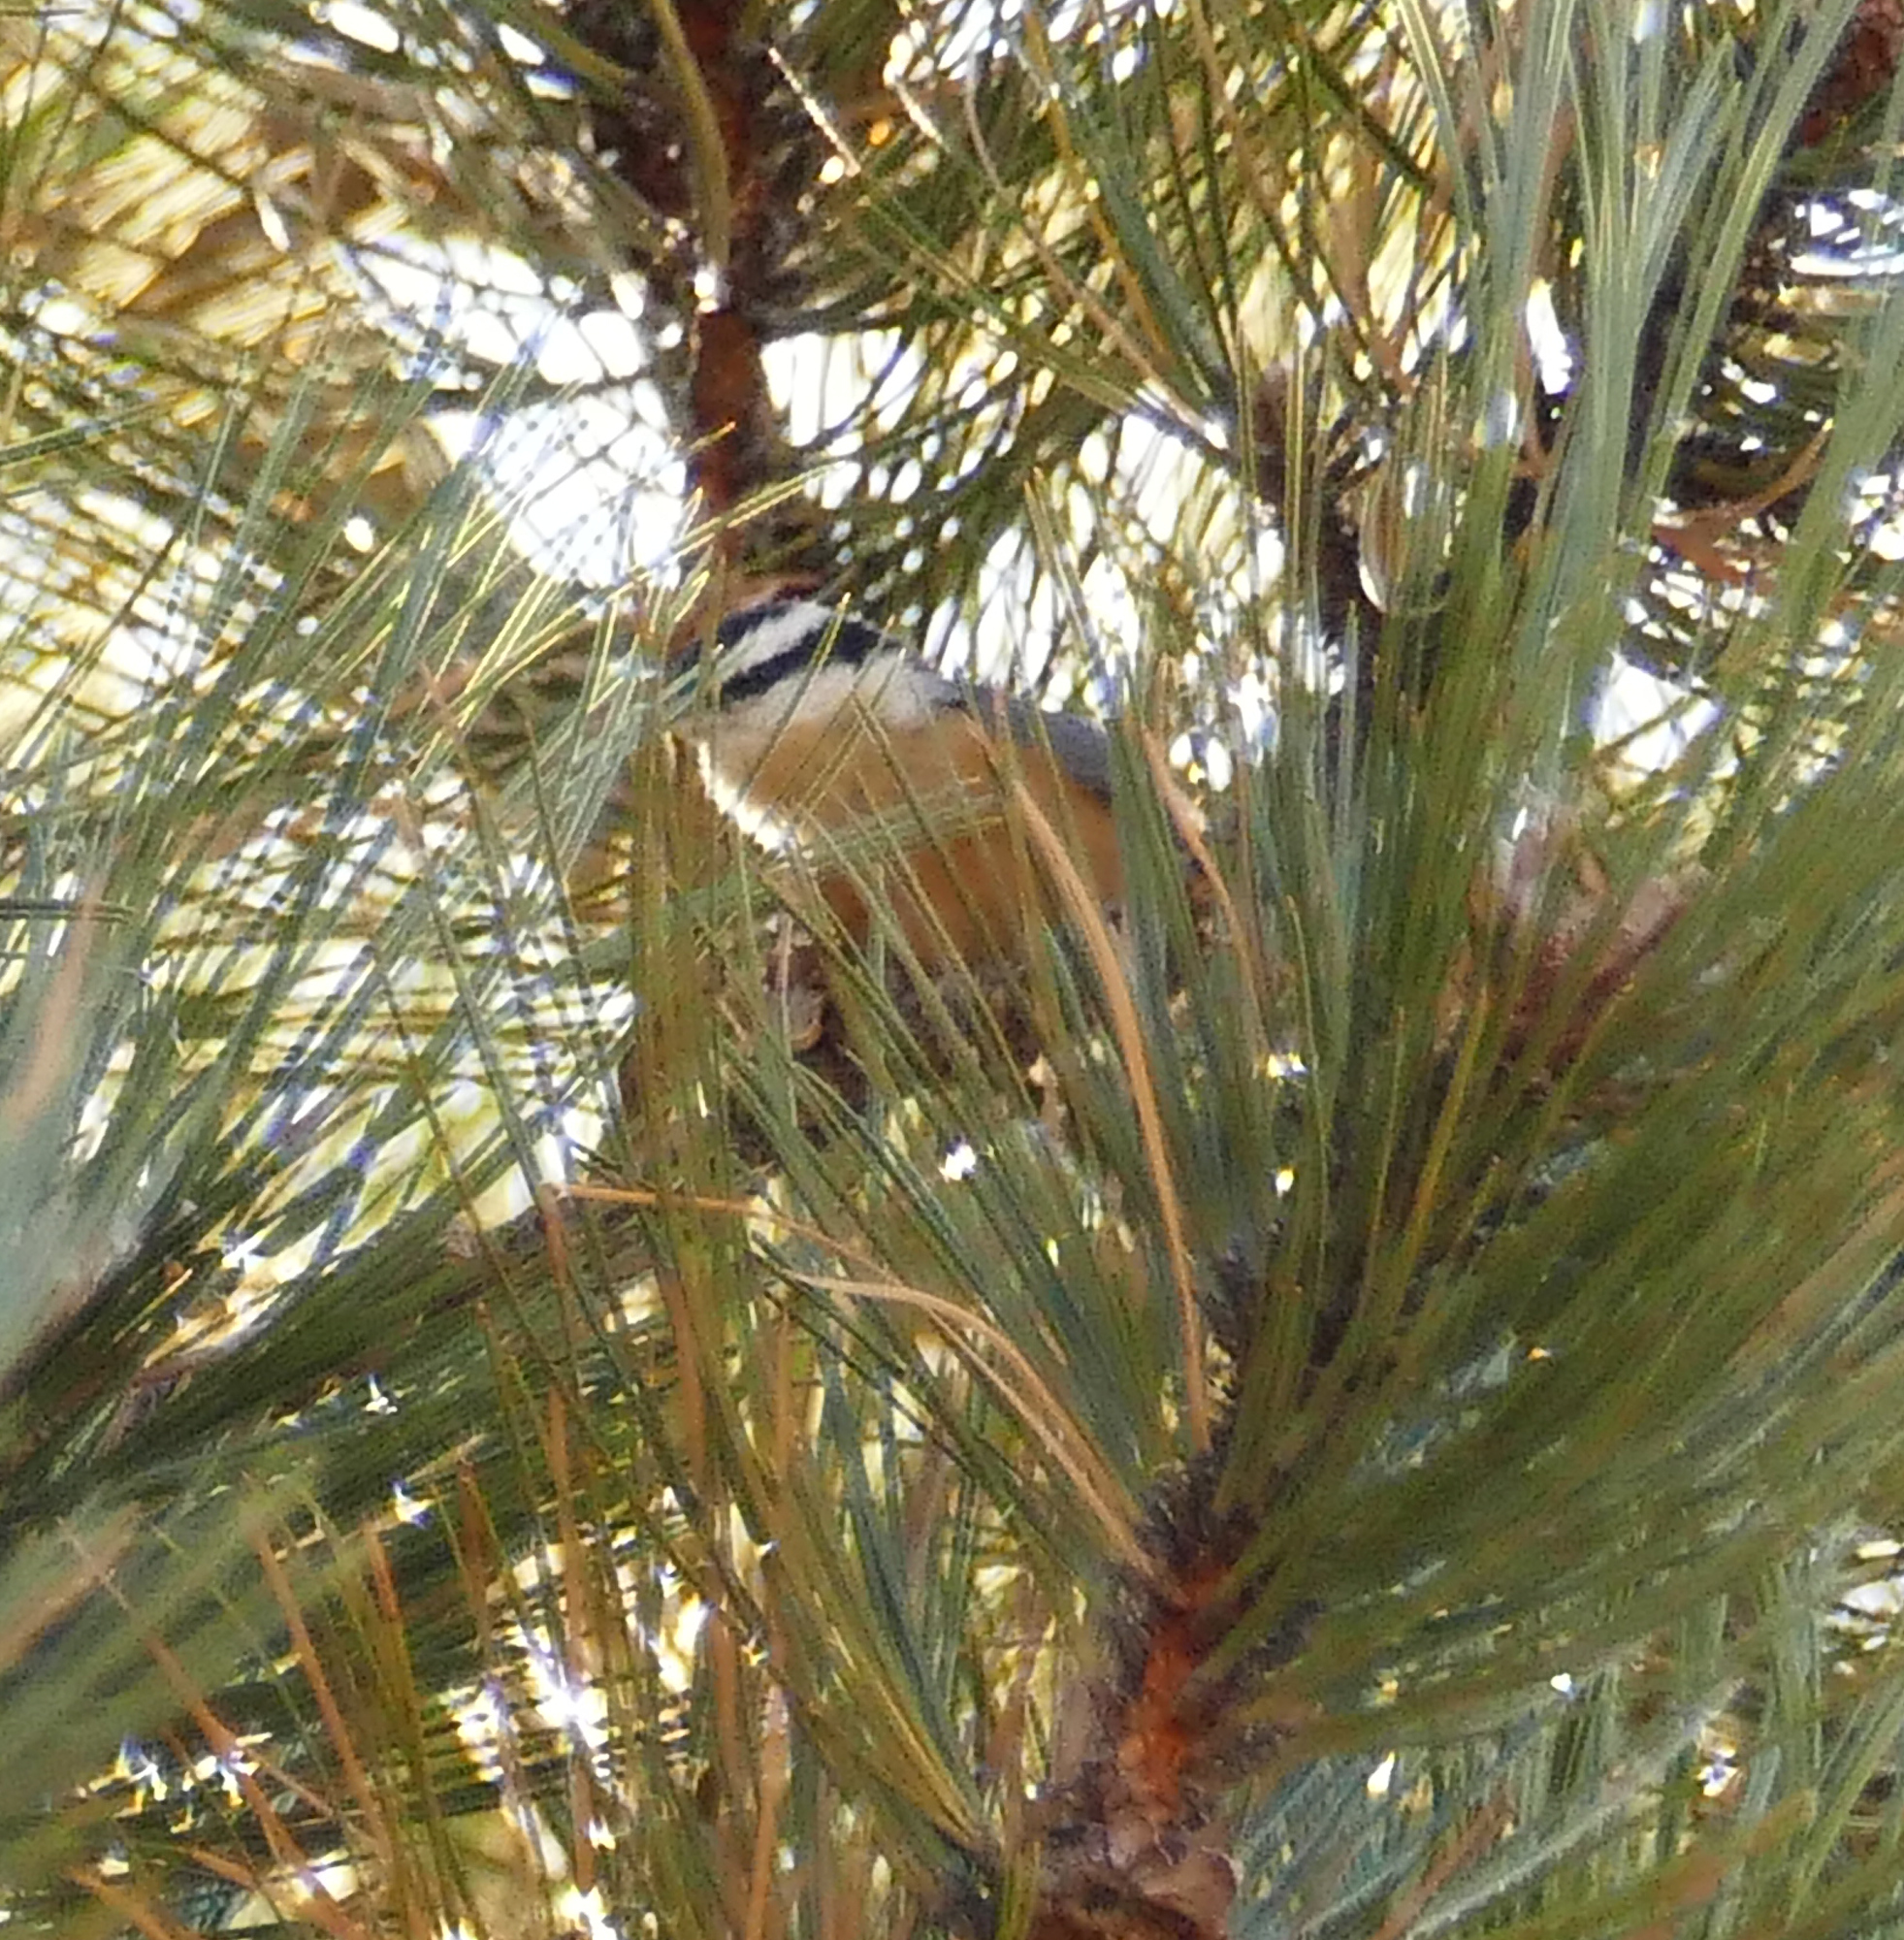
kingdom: Animalia
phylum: Chordata
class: Aves
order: Passeriformes
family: Sittidae
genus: Sitta
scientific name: Sitta canadensis
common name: Red-breasted nuthatch
